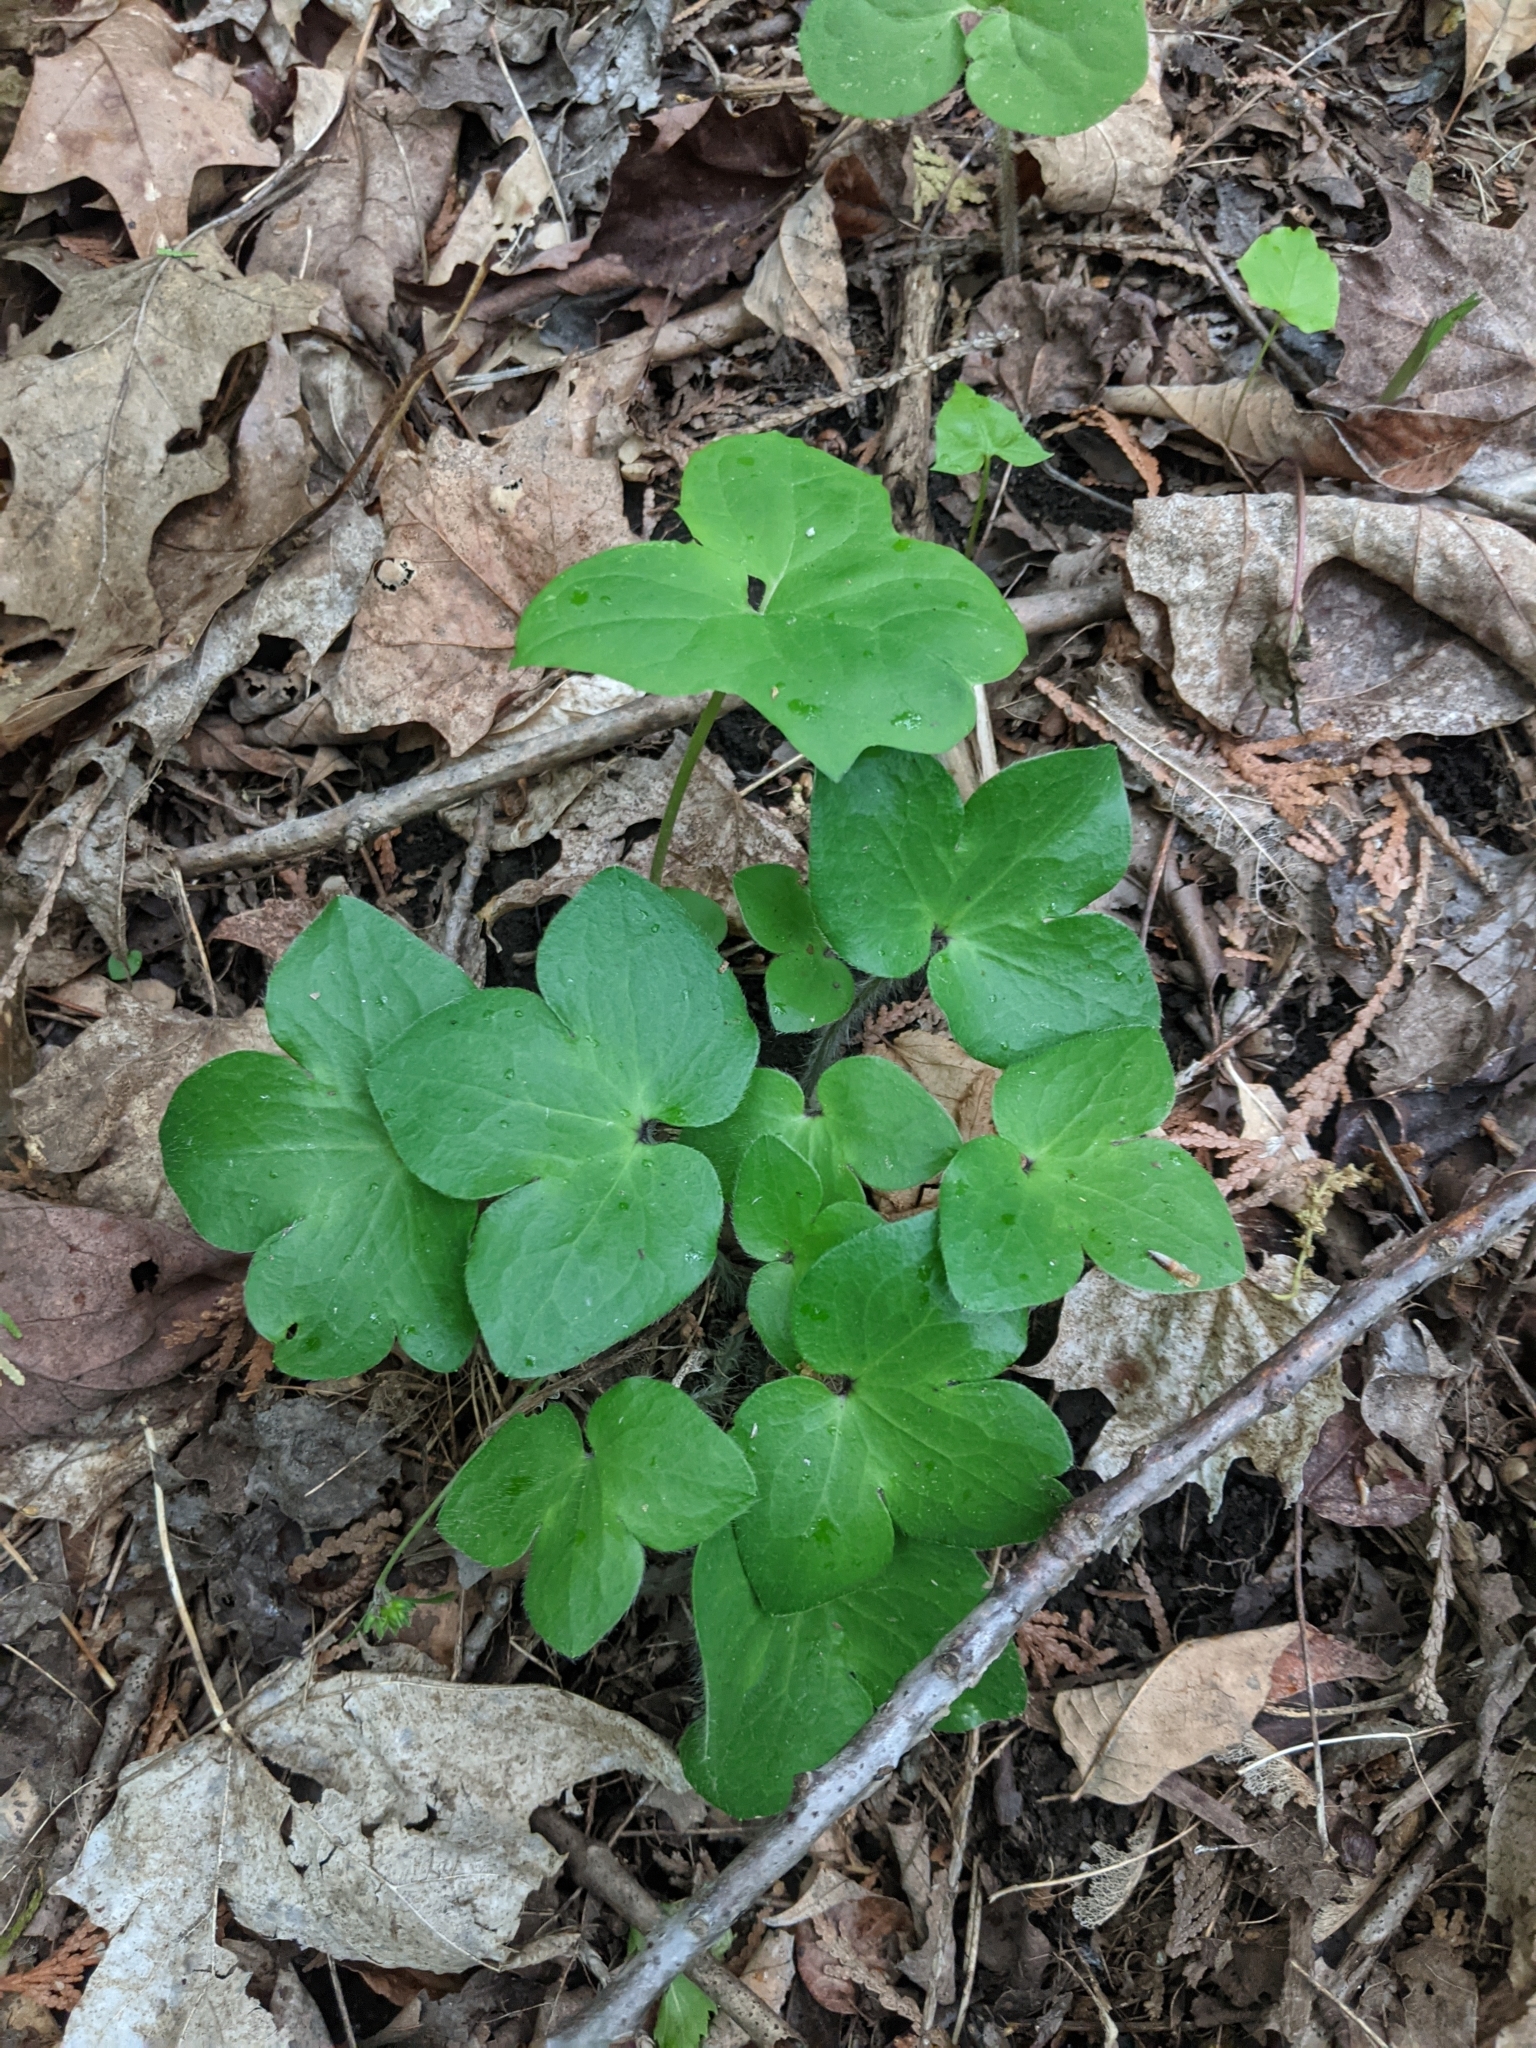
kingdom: Plantae
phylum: Tracheophyta
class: Magnoliopsida
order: Ranunculales
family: Ranunculaceae
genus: Hepatica
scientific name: Hepatica acutiloba
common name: Sharp-lobed hepatica
